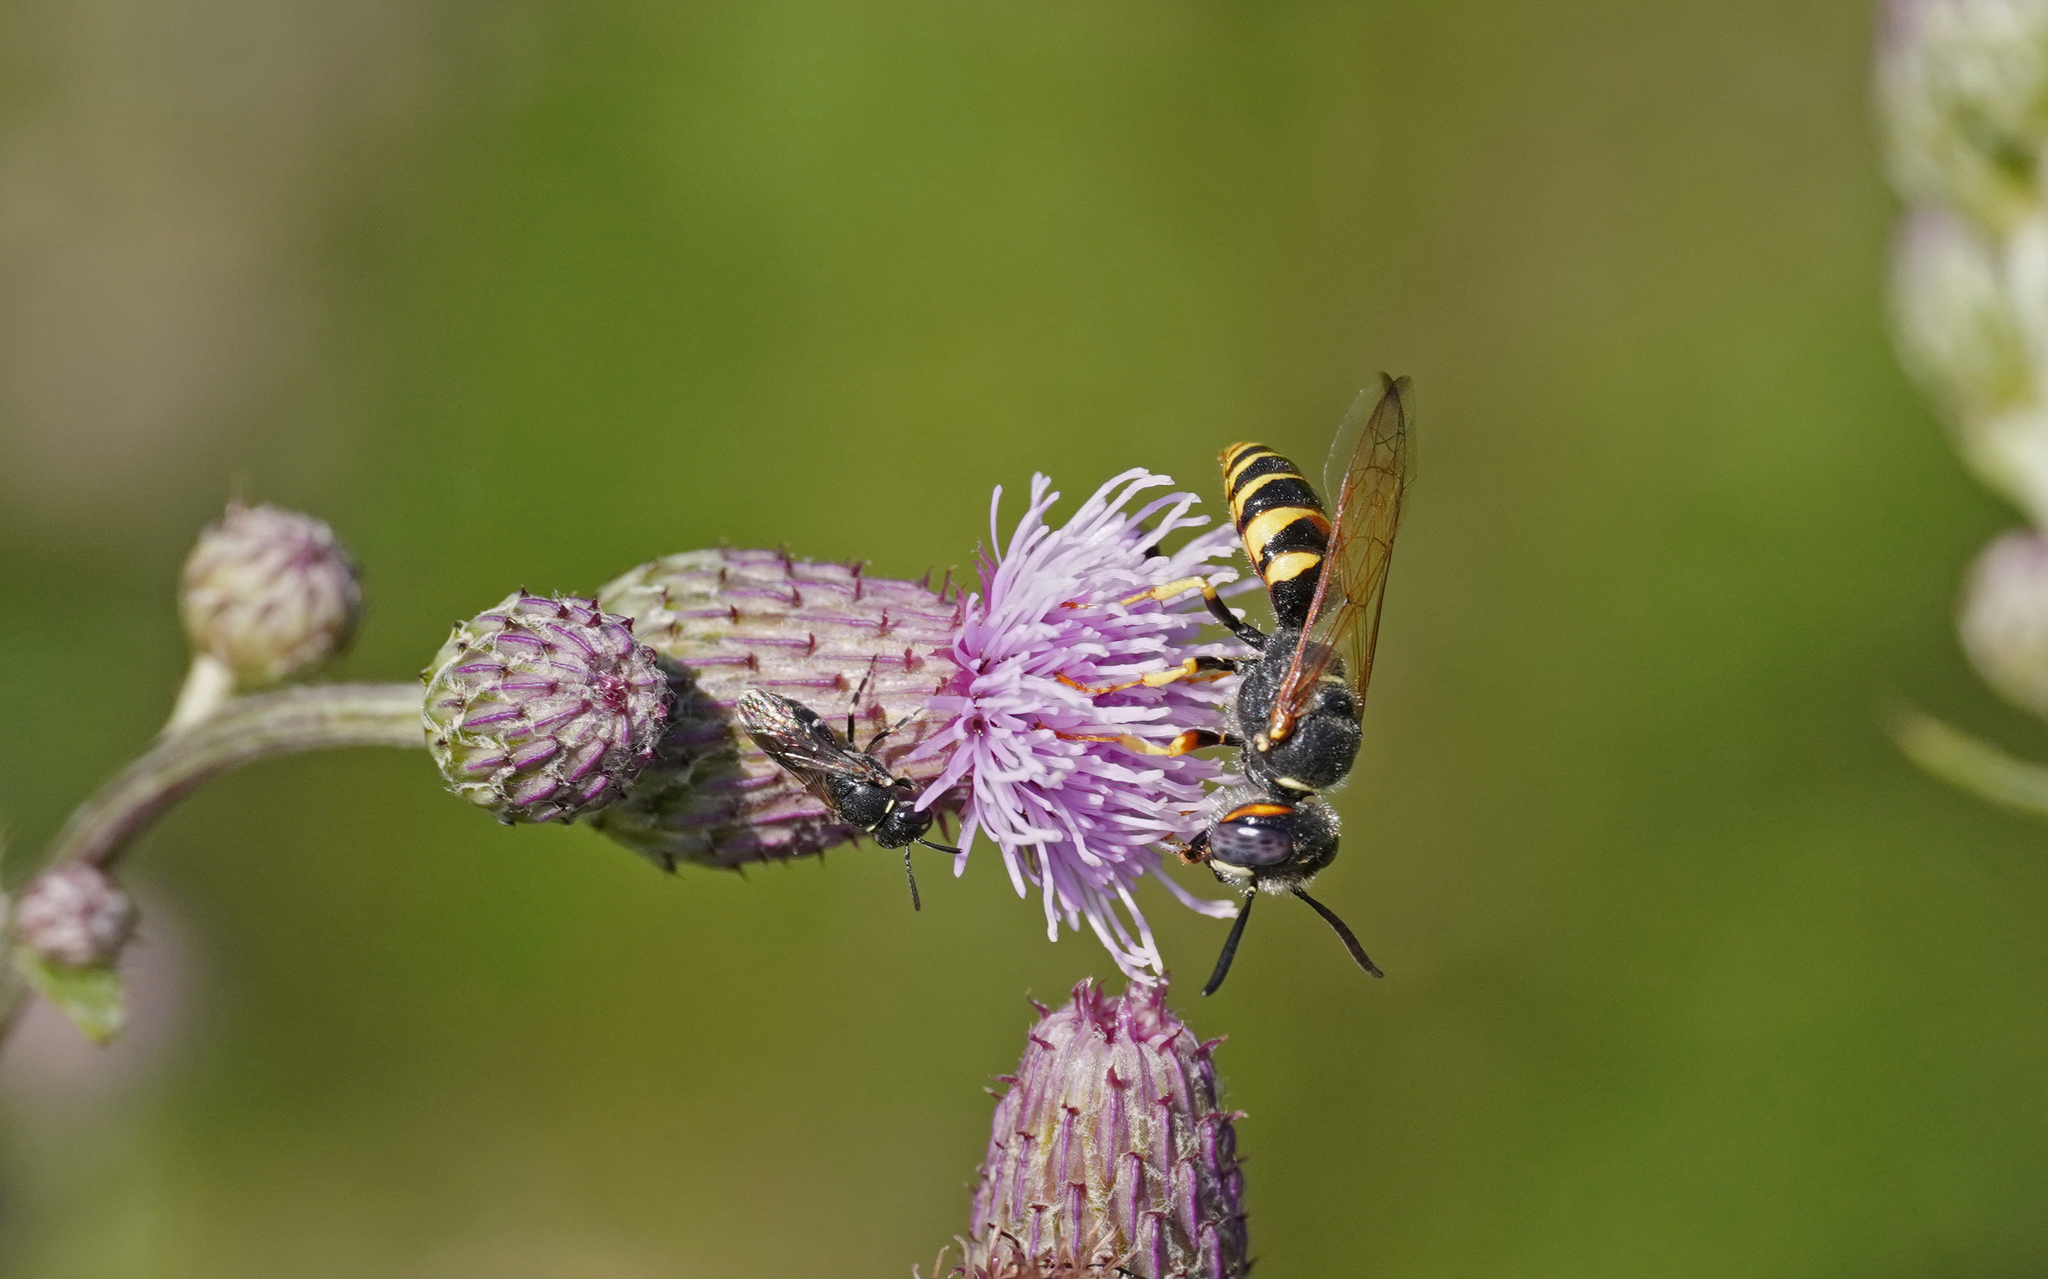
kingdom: Animalia
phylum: Arthropoda
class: Insecta
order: Hymenoptera
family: Crabronidae
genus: Philanthus
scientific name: Philanthus triangulum
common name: Bee wolf
